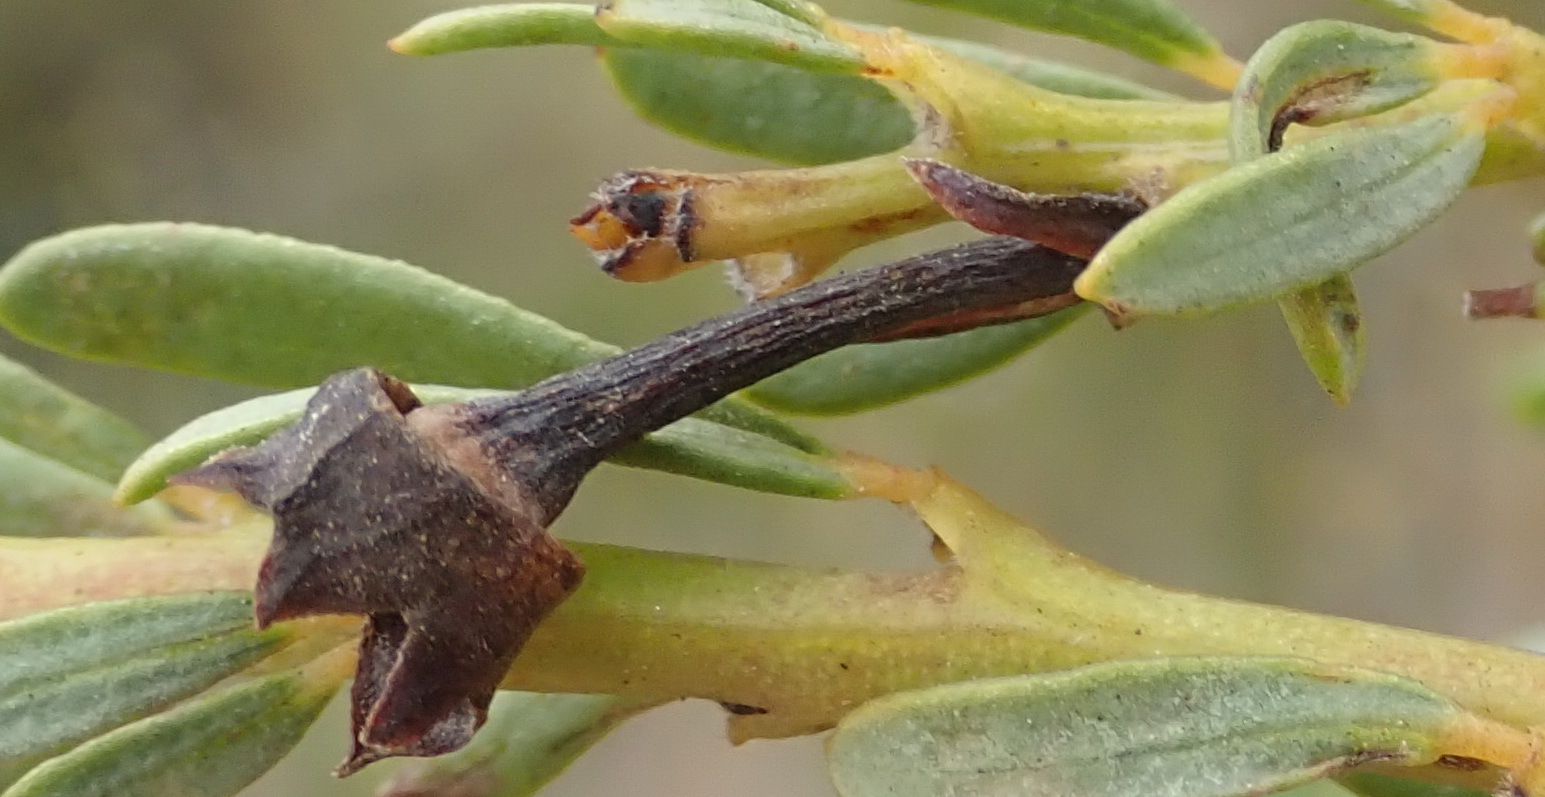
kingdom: Plantae
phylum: Tracheophyta
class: Magnoliopsida
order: Fabales
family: Fabaceae
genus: Cyclopia
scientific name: Cyclopia subternata
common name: Honeybush tea
